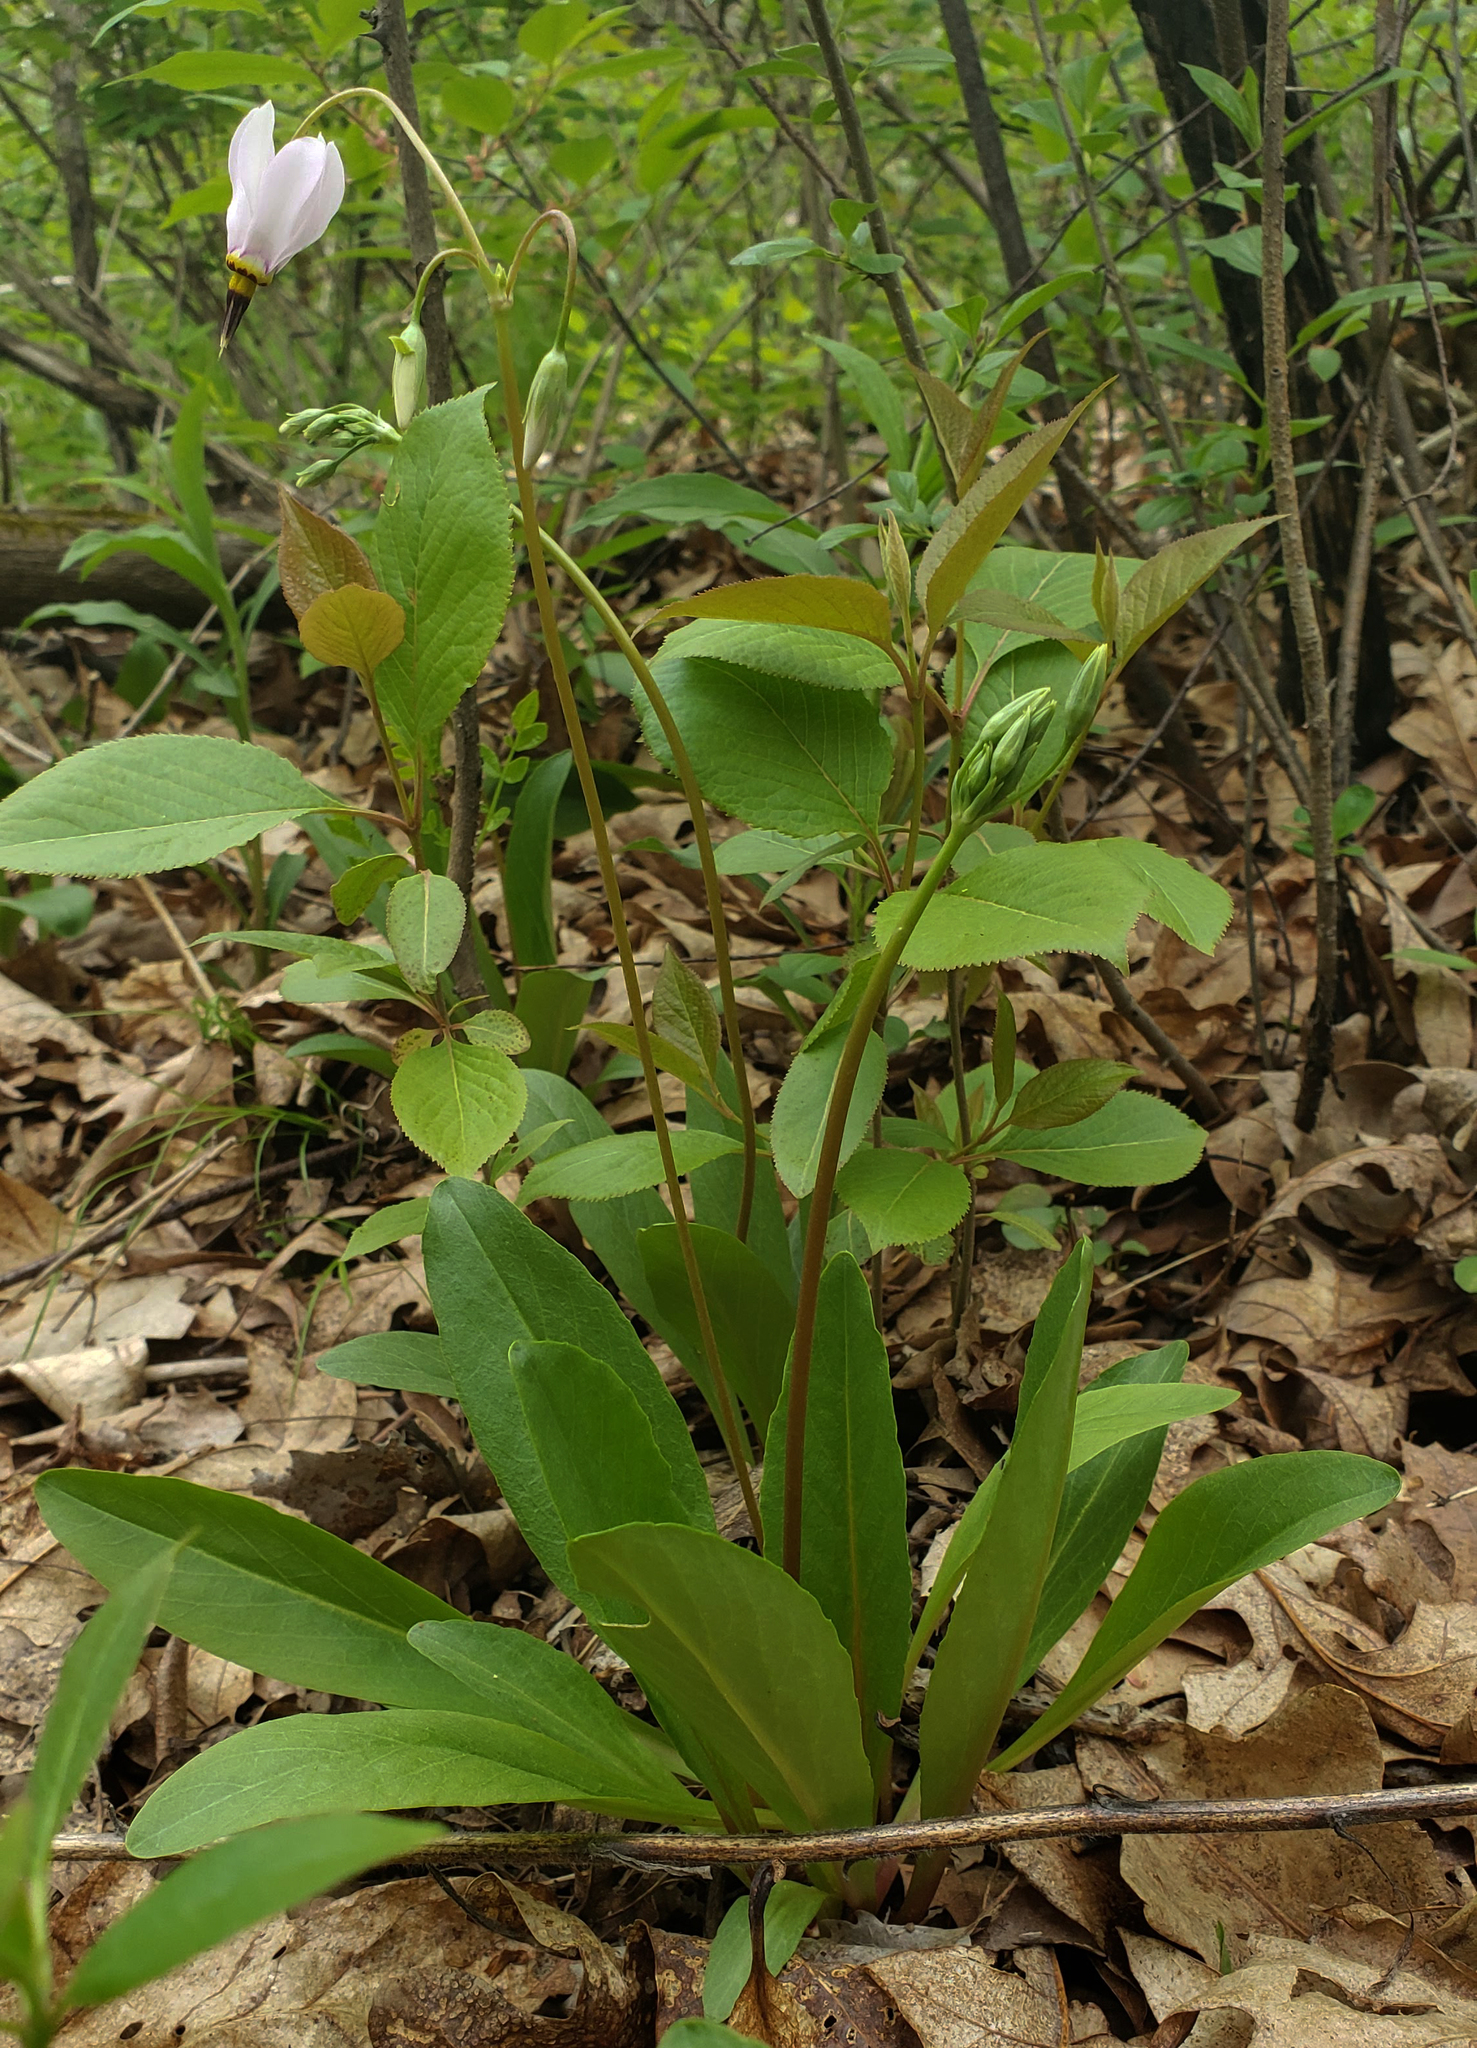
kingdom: Plantae
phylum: Tracheophyta
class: Magnoliopsida
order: Ericales
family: Primulaceae
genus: Dodecatheon
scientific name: Dodecatheon meadia
